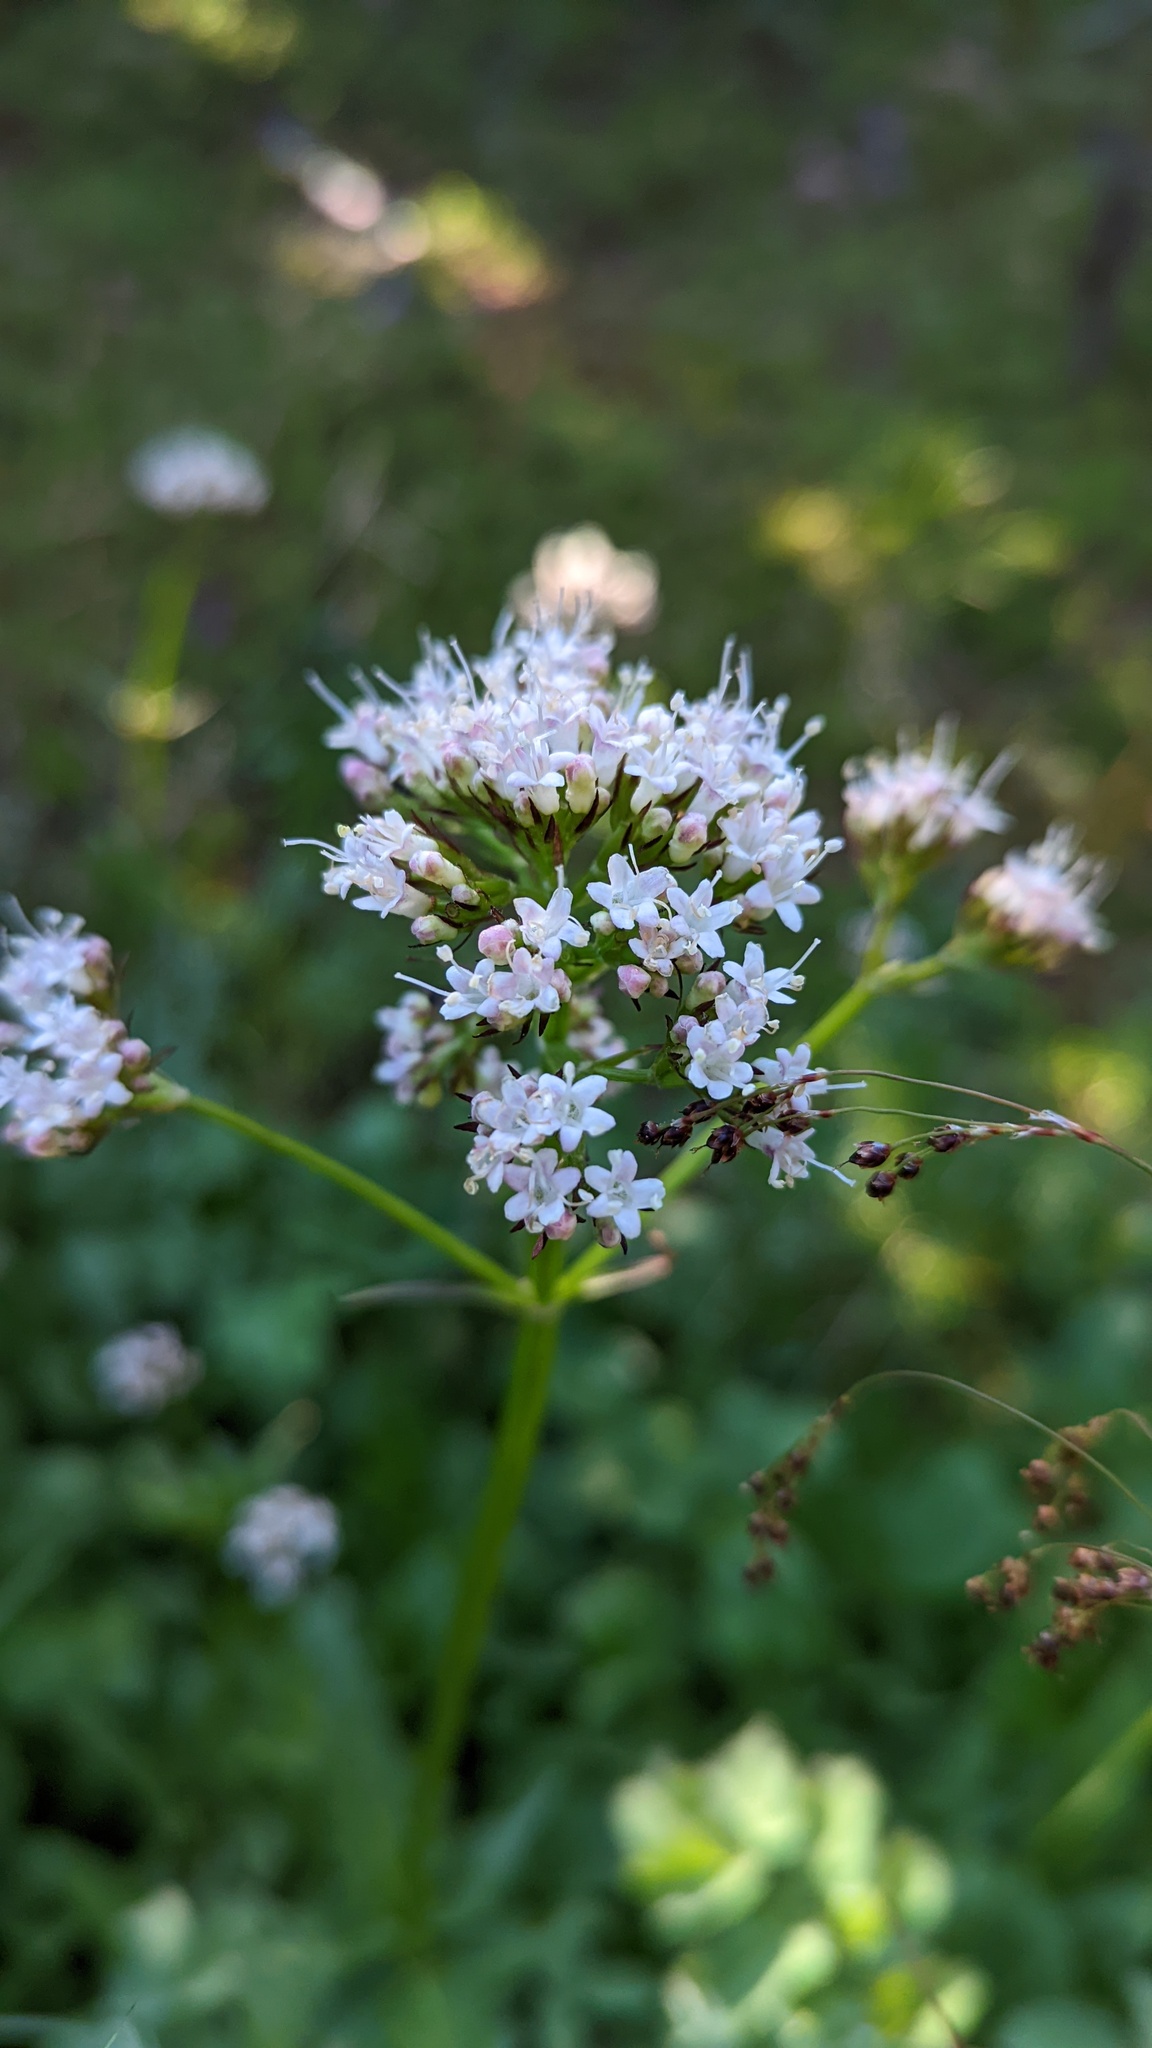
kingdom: Plantae
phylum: Tracheophyta
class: Magnoliopsida
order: Dipsacales
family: Caprifoliaceae
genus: Valeriana
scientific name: Valeriana sitchensis
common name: Pacific valerian
